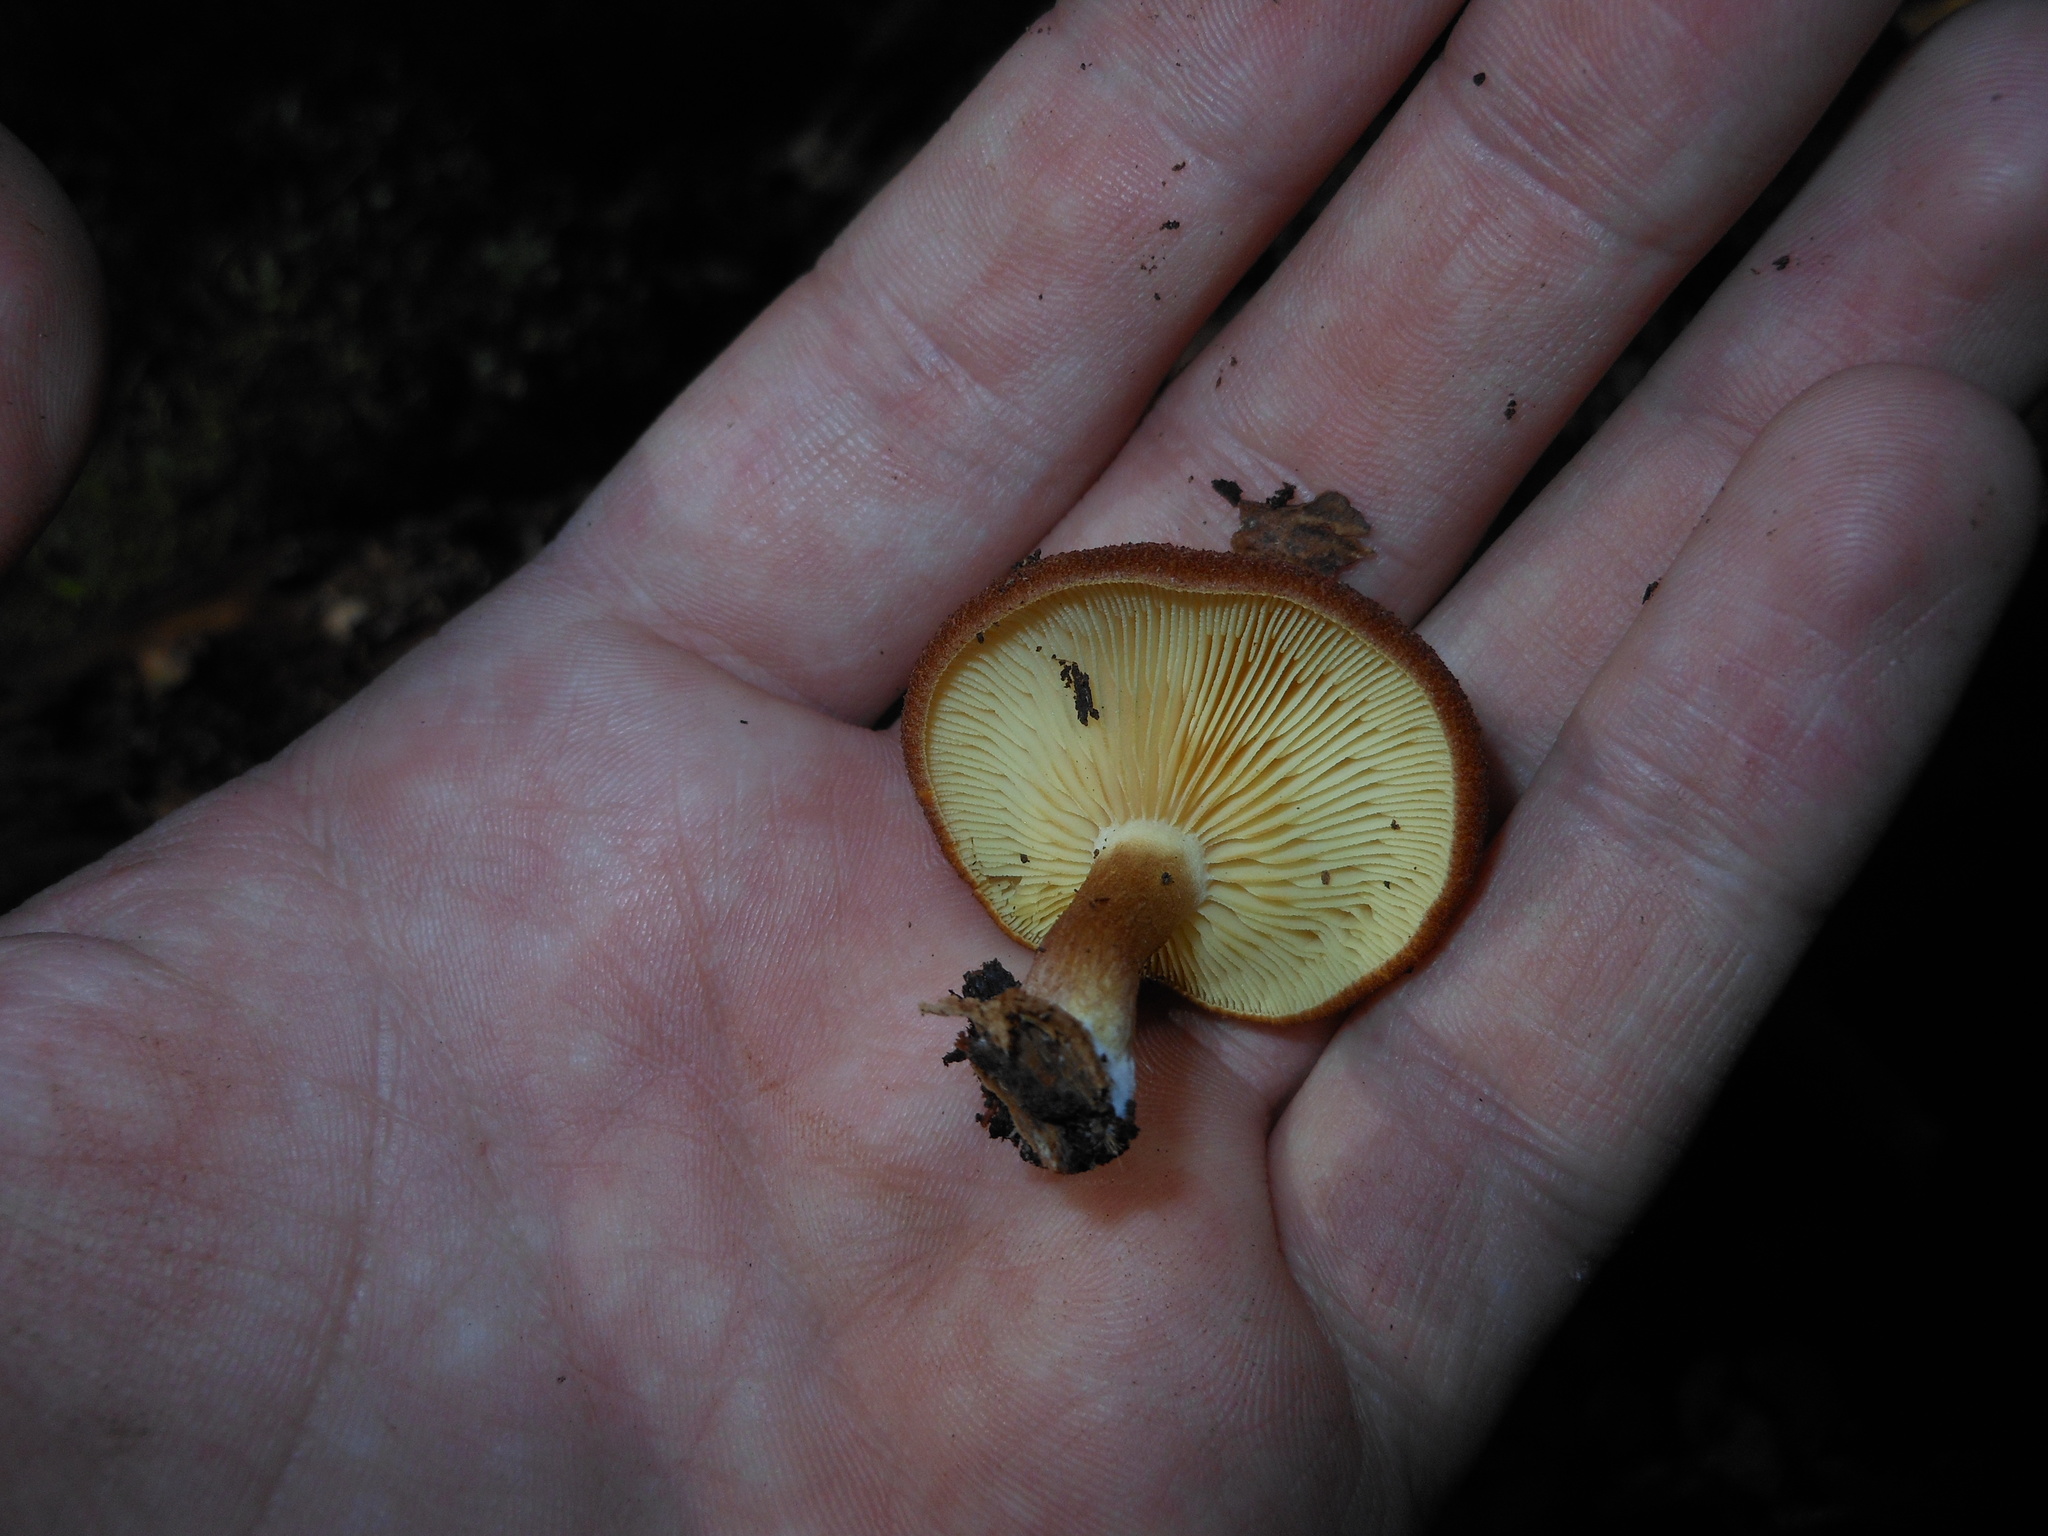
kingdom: Fungi
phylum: Basidiomycota
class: Agaricomycetes
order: Agaricales
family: Tricholomataceae
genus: Tricholomopsis
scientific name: Tricholomopsis rutilans
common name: Plums and custard
